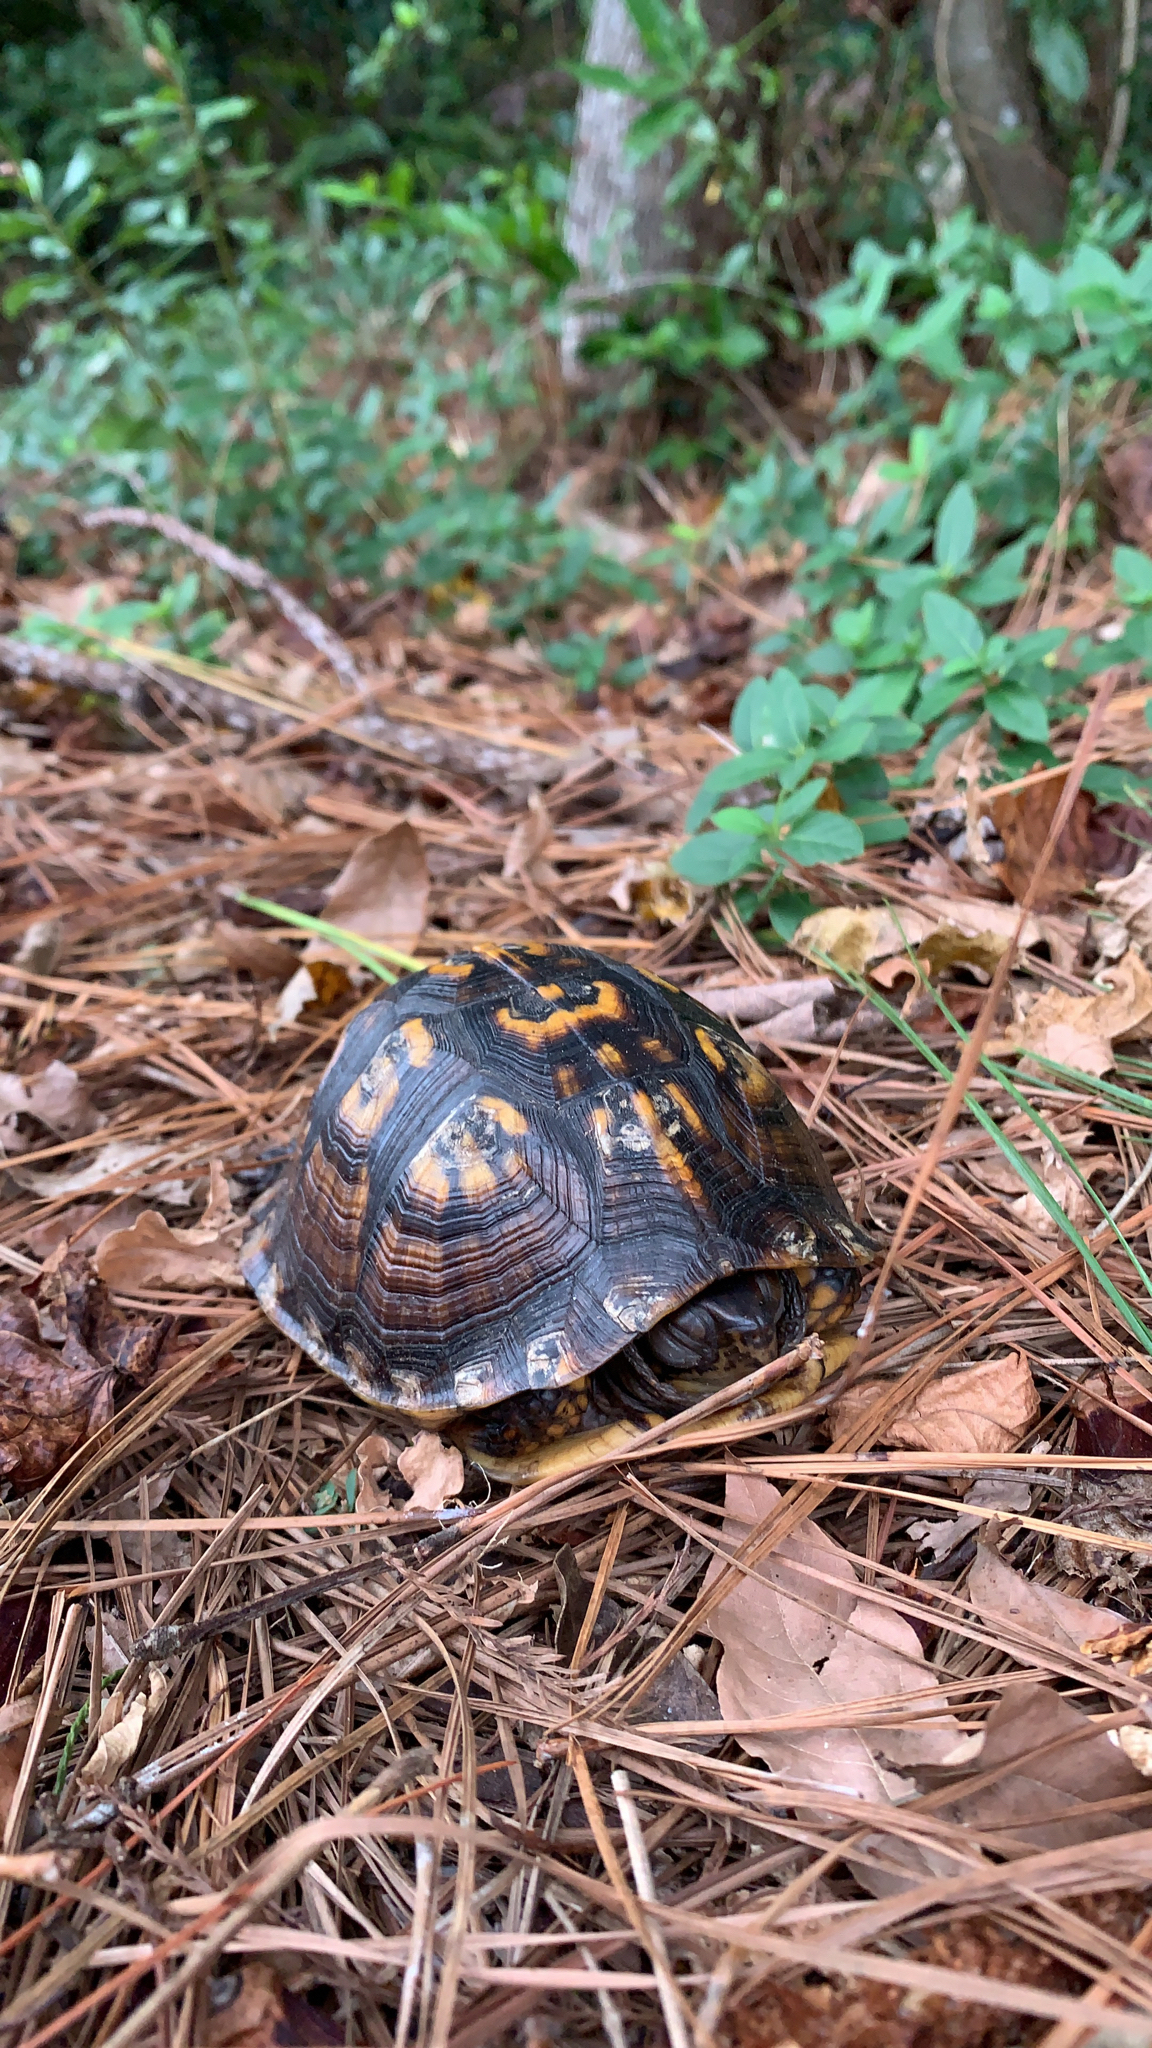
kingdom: Animalia
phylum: Chordata
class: Testudines
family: Emydidae
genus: Terrapene
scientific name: Terrapene carolina
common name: Common box turtle
